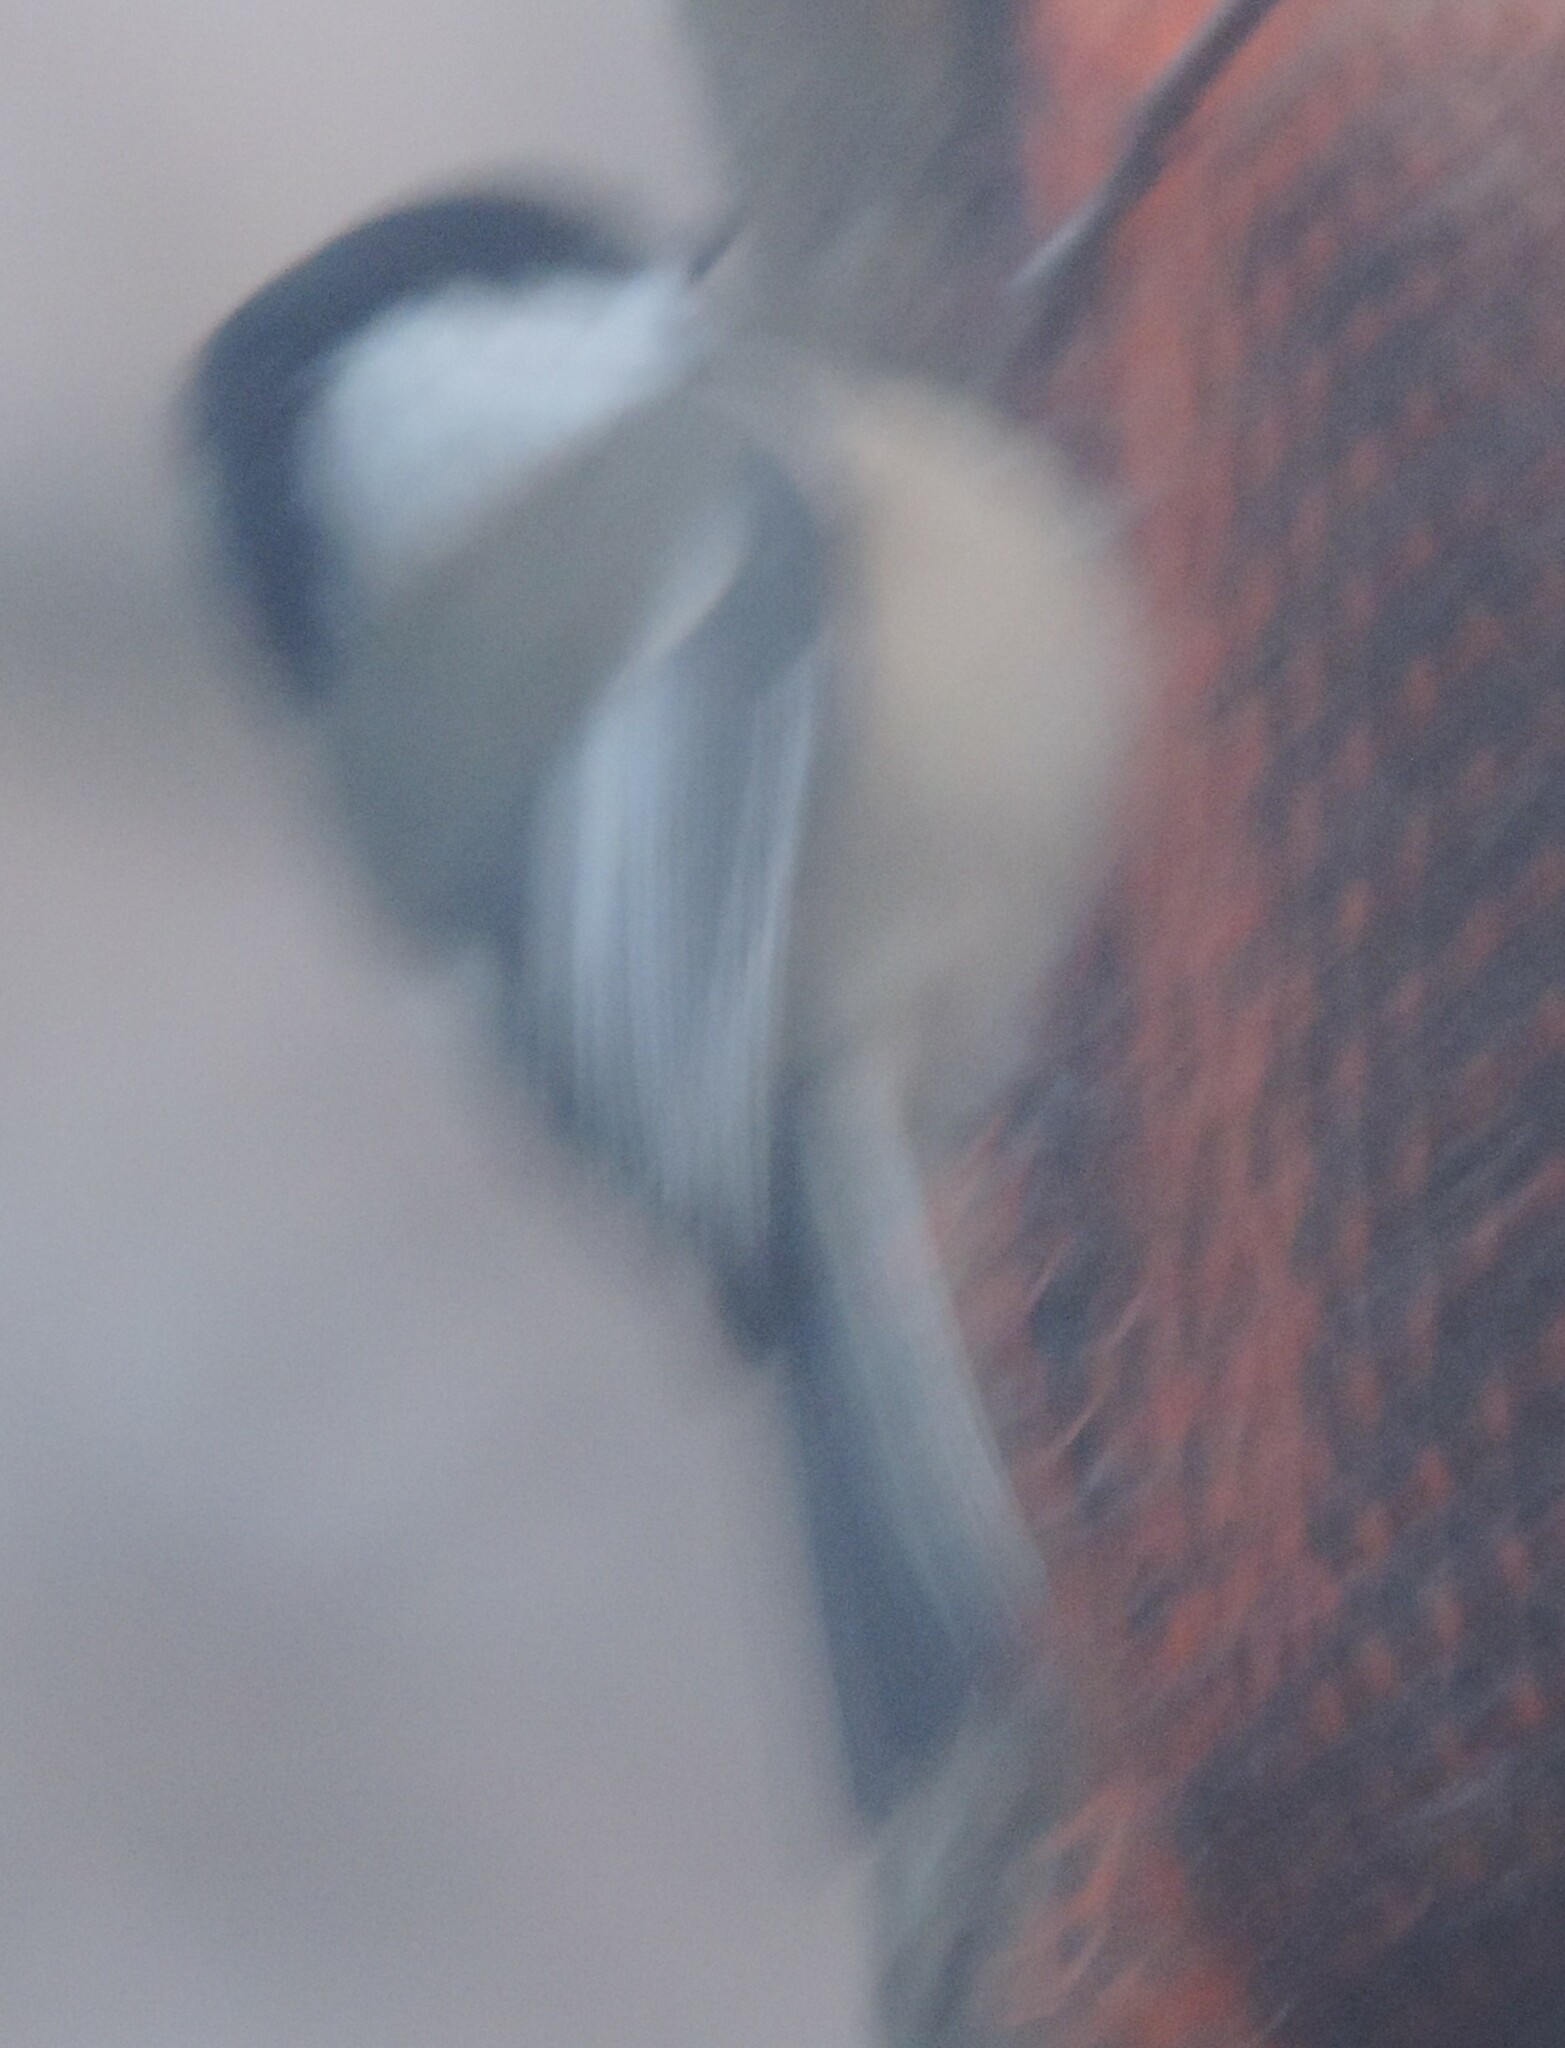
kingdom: Animalia
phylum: Chordata
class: Aves
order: Passeriformes
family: Paridae
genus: Poecile
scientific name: Poecile atricapillus
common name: Black-capped chickadee
